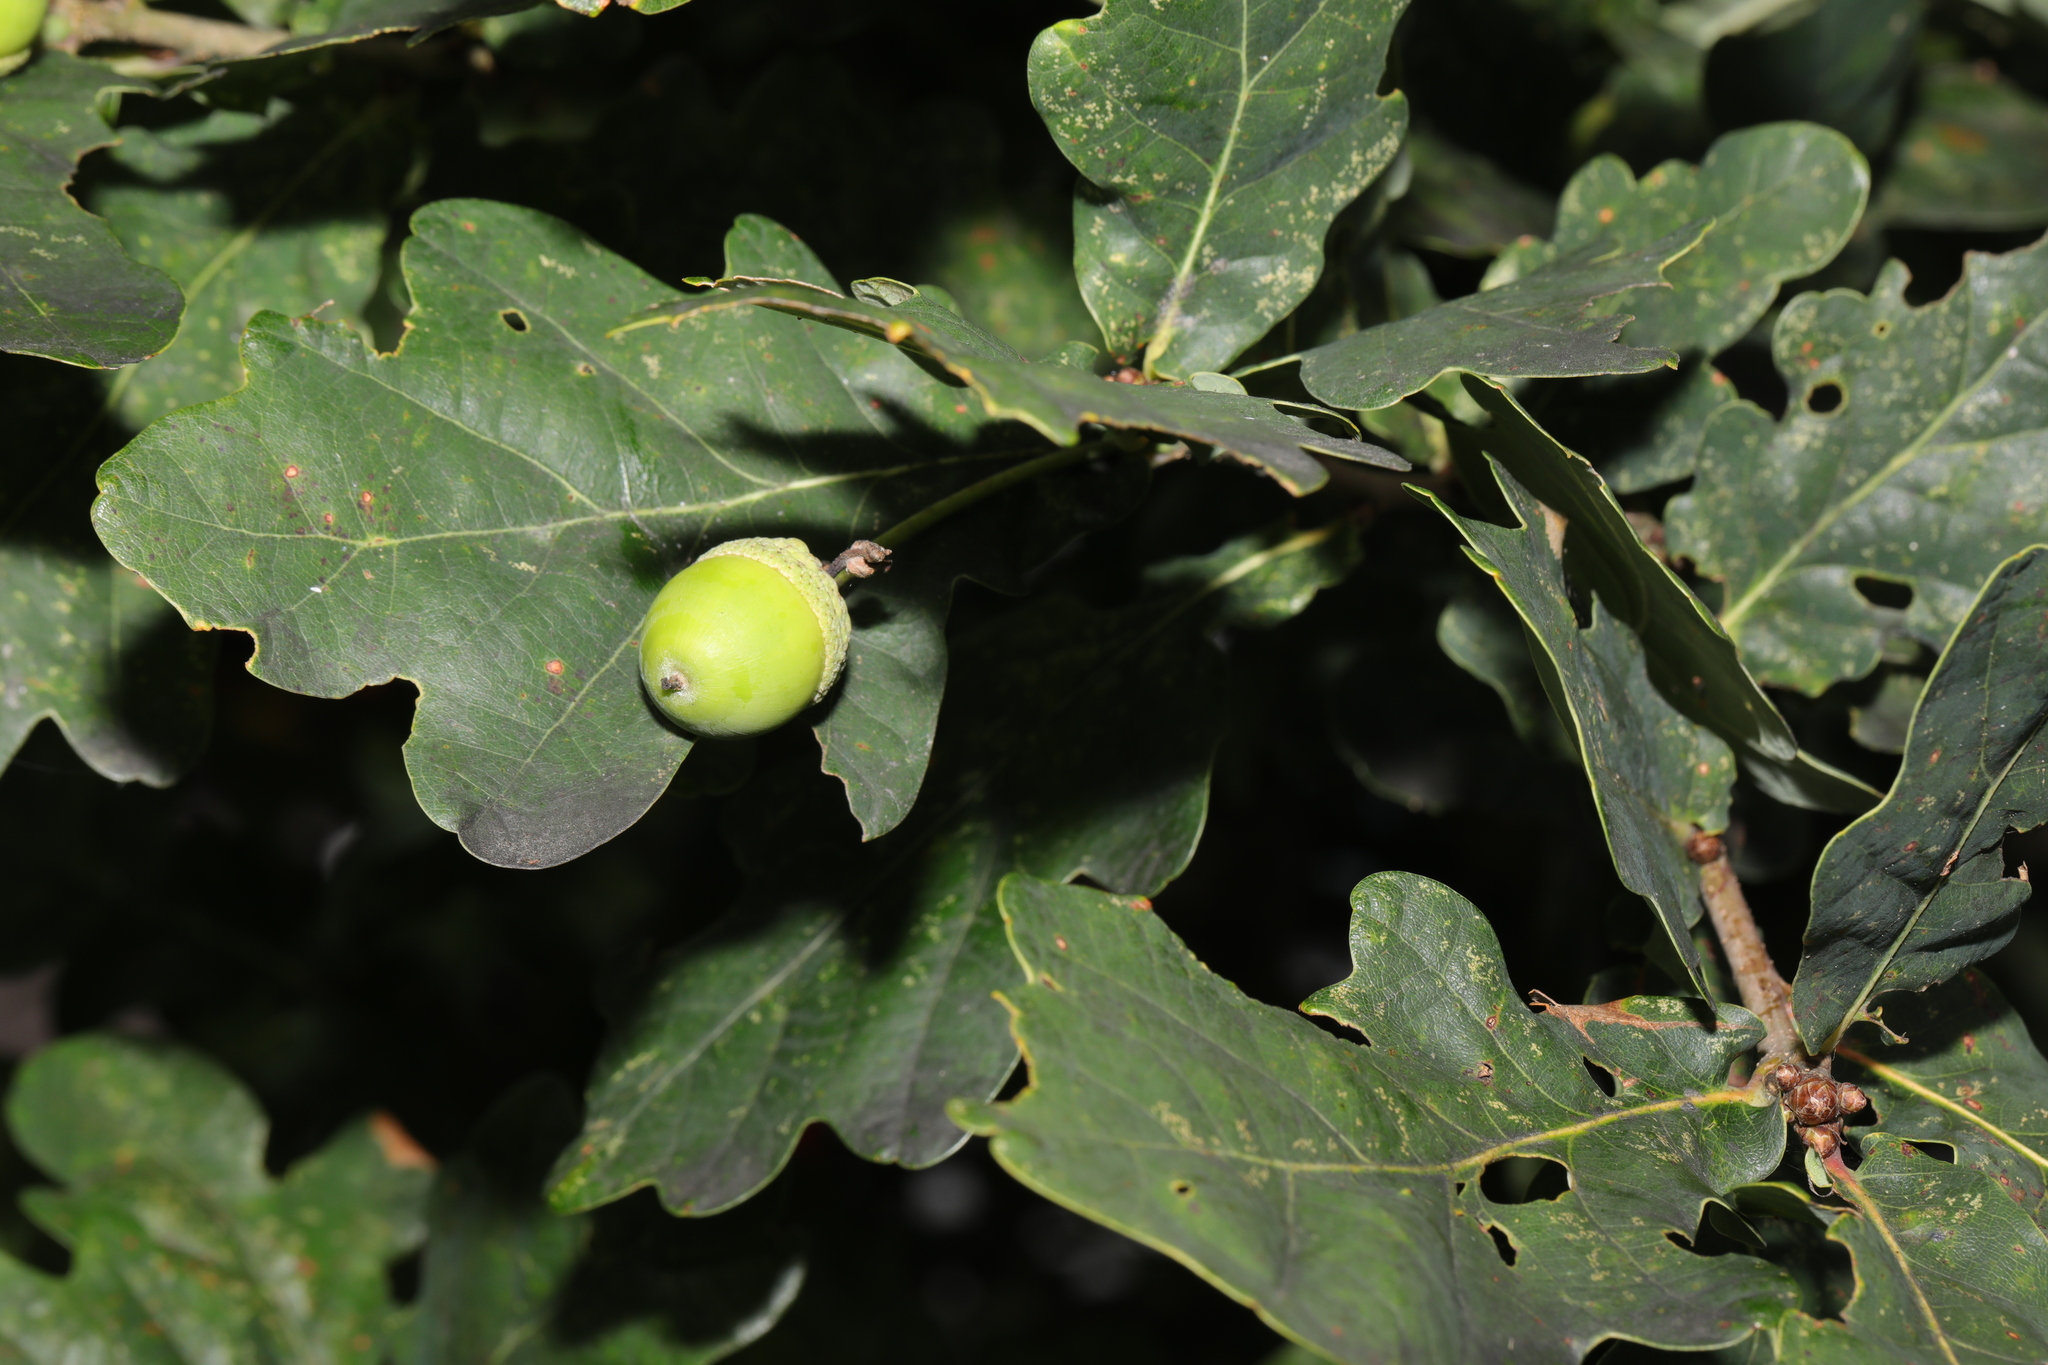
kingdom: Plantae
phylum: Tracheophyta
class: Magnoliopsida
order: Fagales
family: Fagaceae
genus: Quercus
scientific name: Quercus robur
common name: Pedunculate oak
